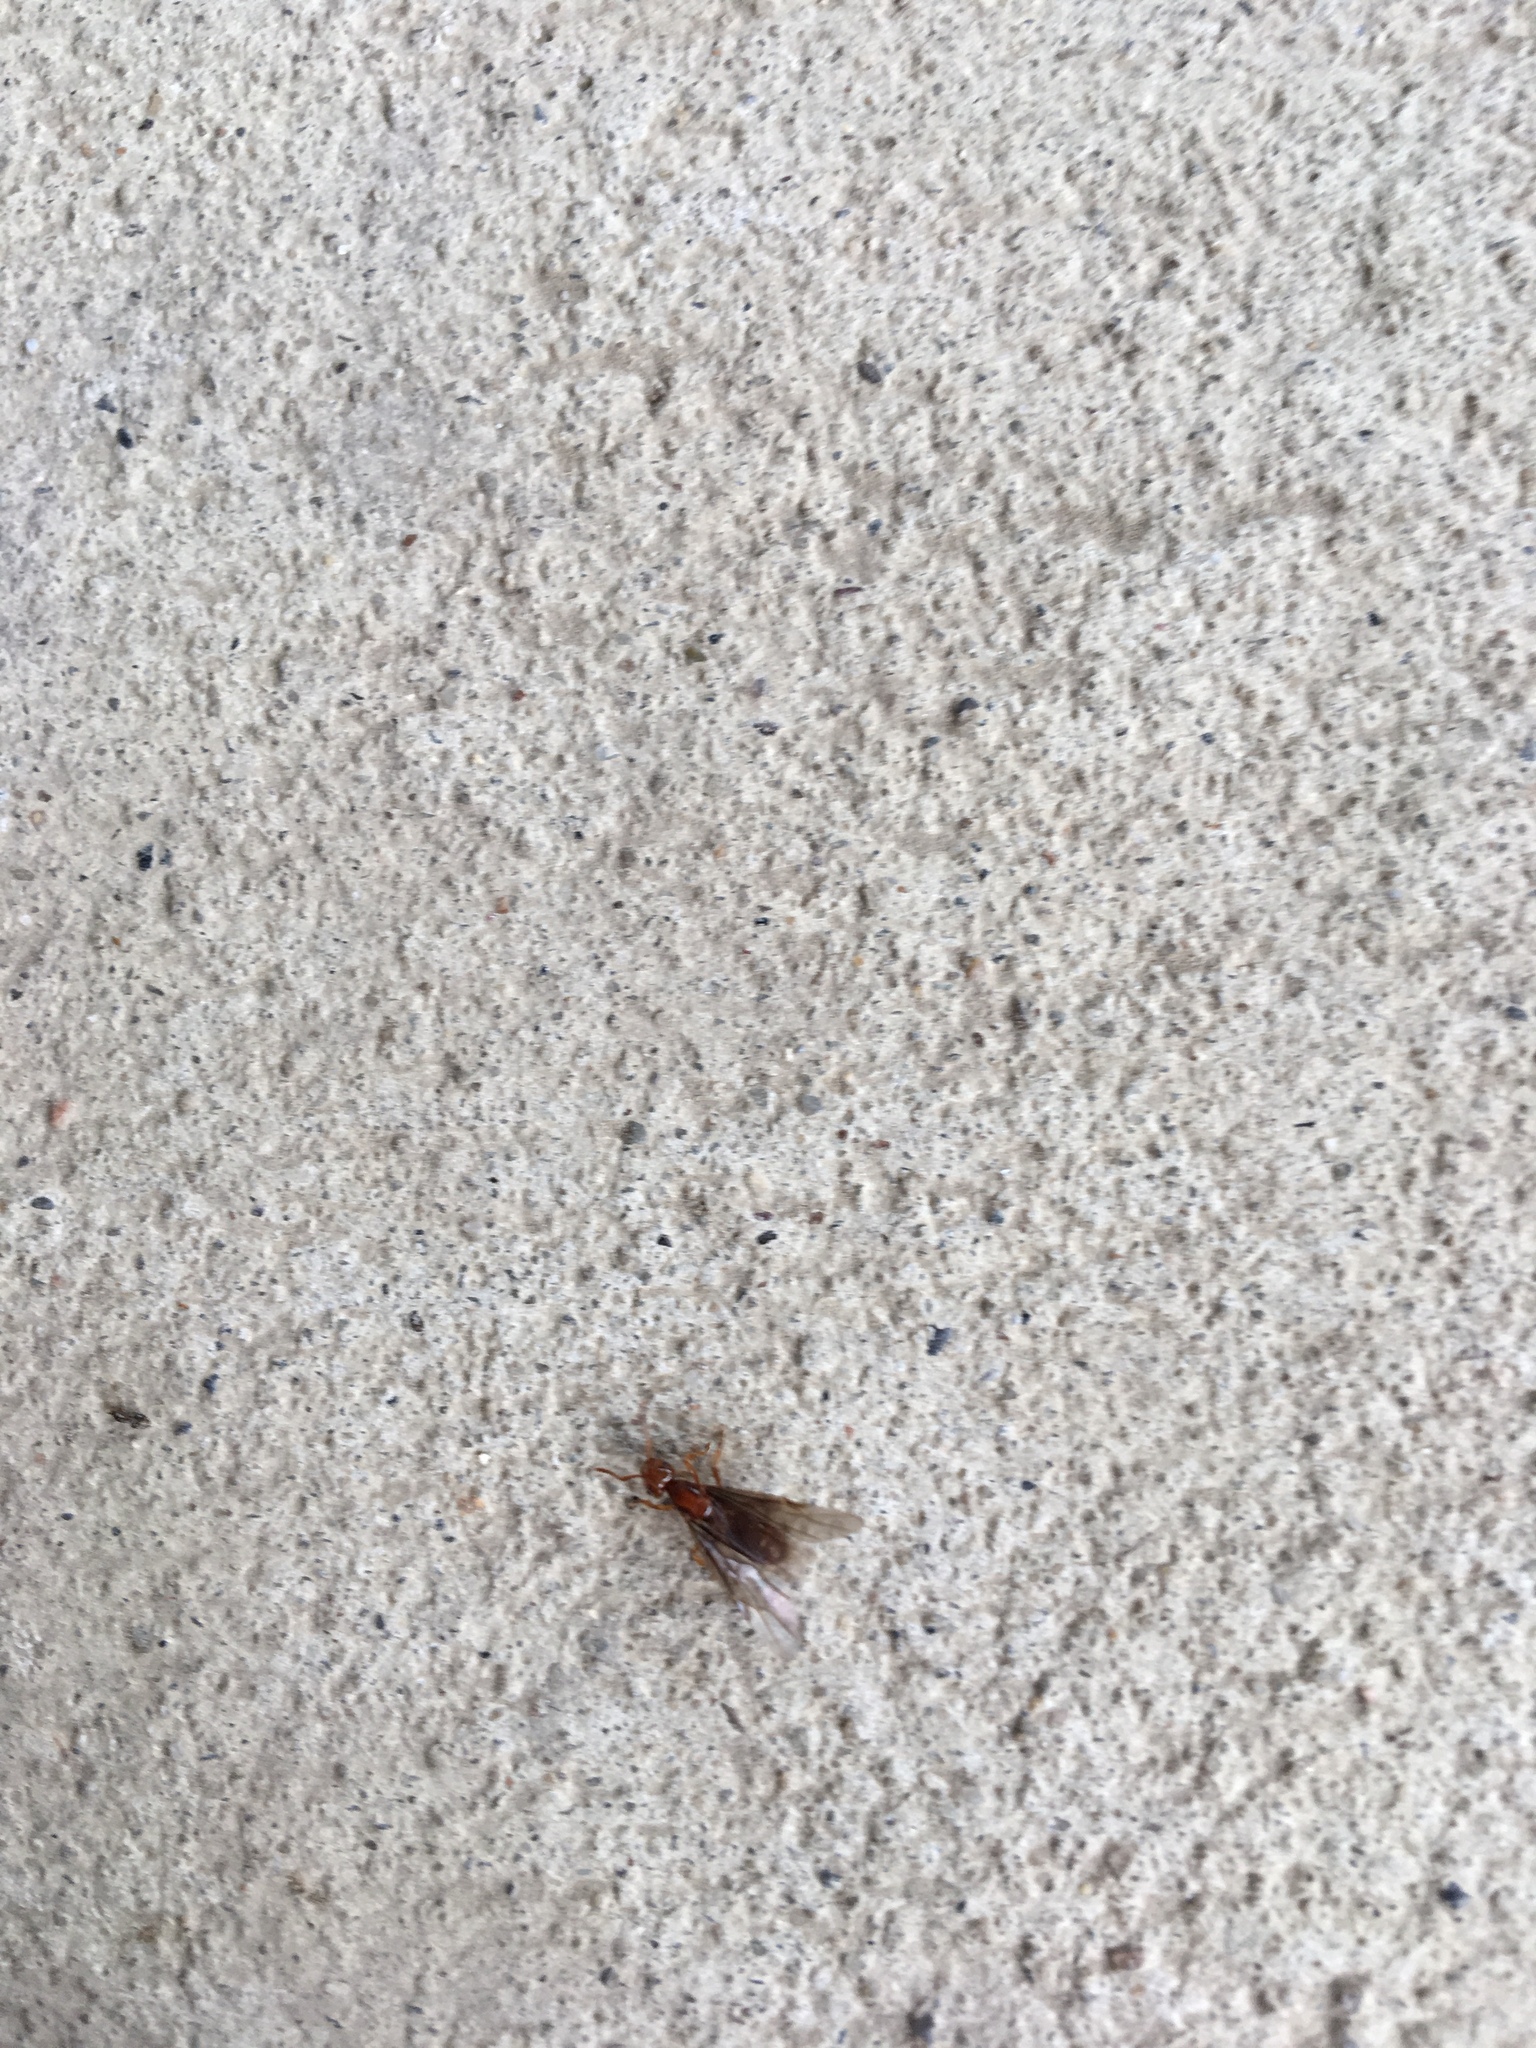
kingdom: Animalia
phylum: Arthropoda
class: Insecta
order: Hymenoptera
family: Formicidae
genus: Acanthomyops
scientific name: Acanthomyops interjectus
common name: Larger yellow ant
